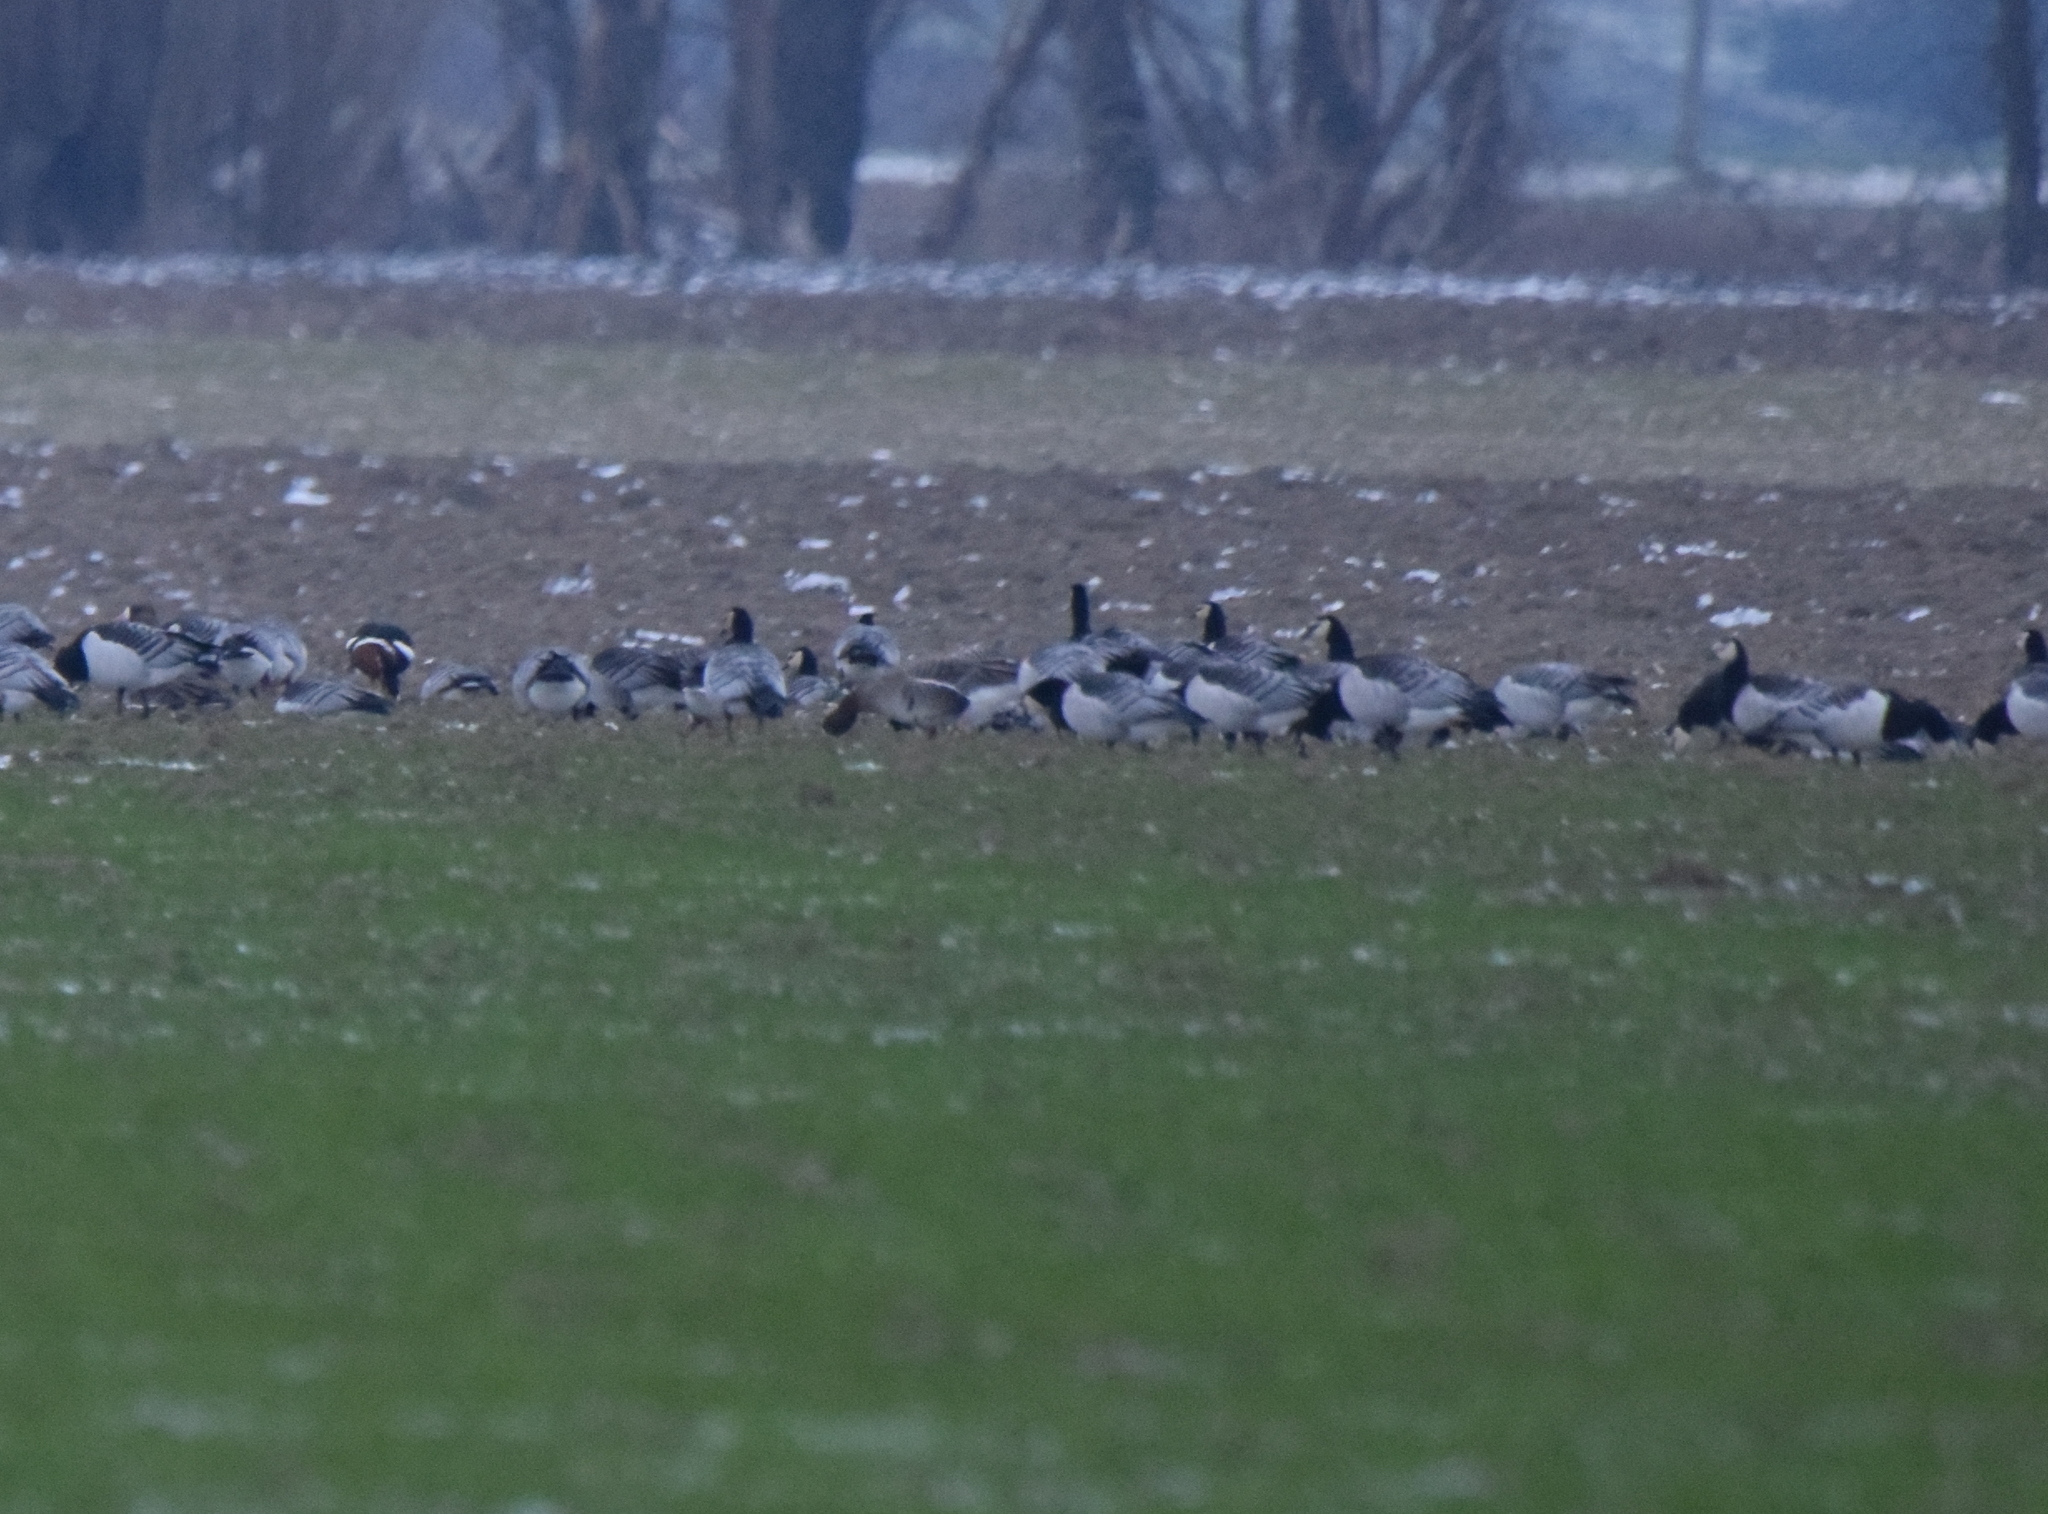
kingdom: Animalia
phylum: Chordata
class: Aves
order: Anseriformes
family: Anatidae
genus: Branta
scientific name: Branta ruficollis
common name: Red-breasted goose
